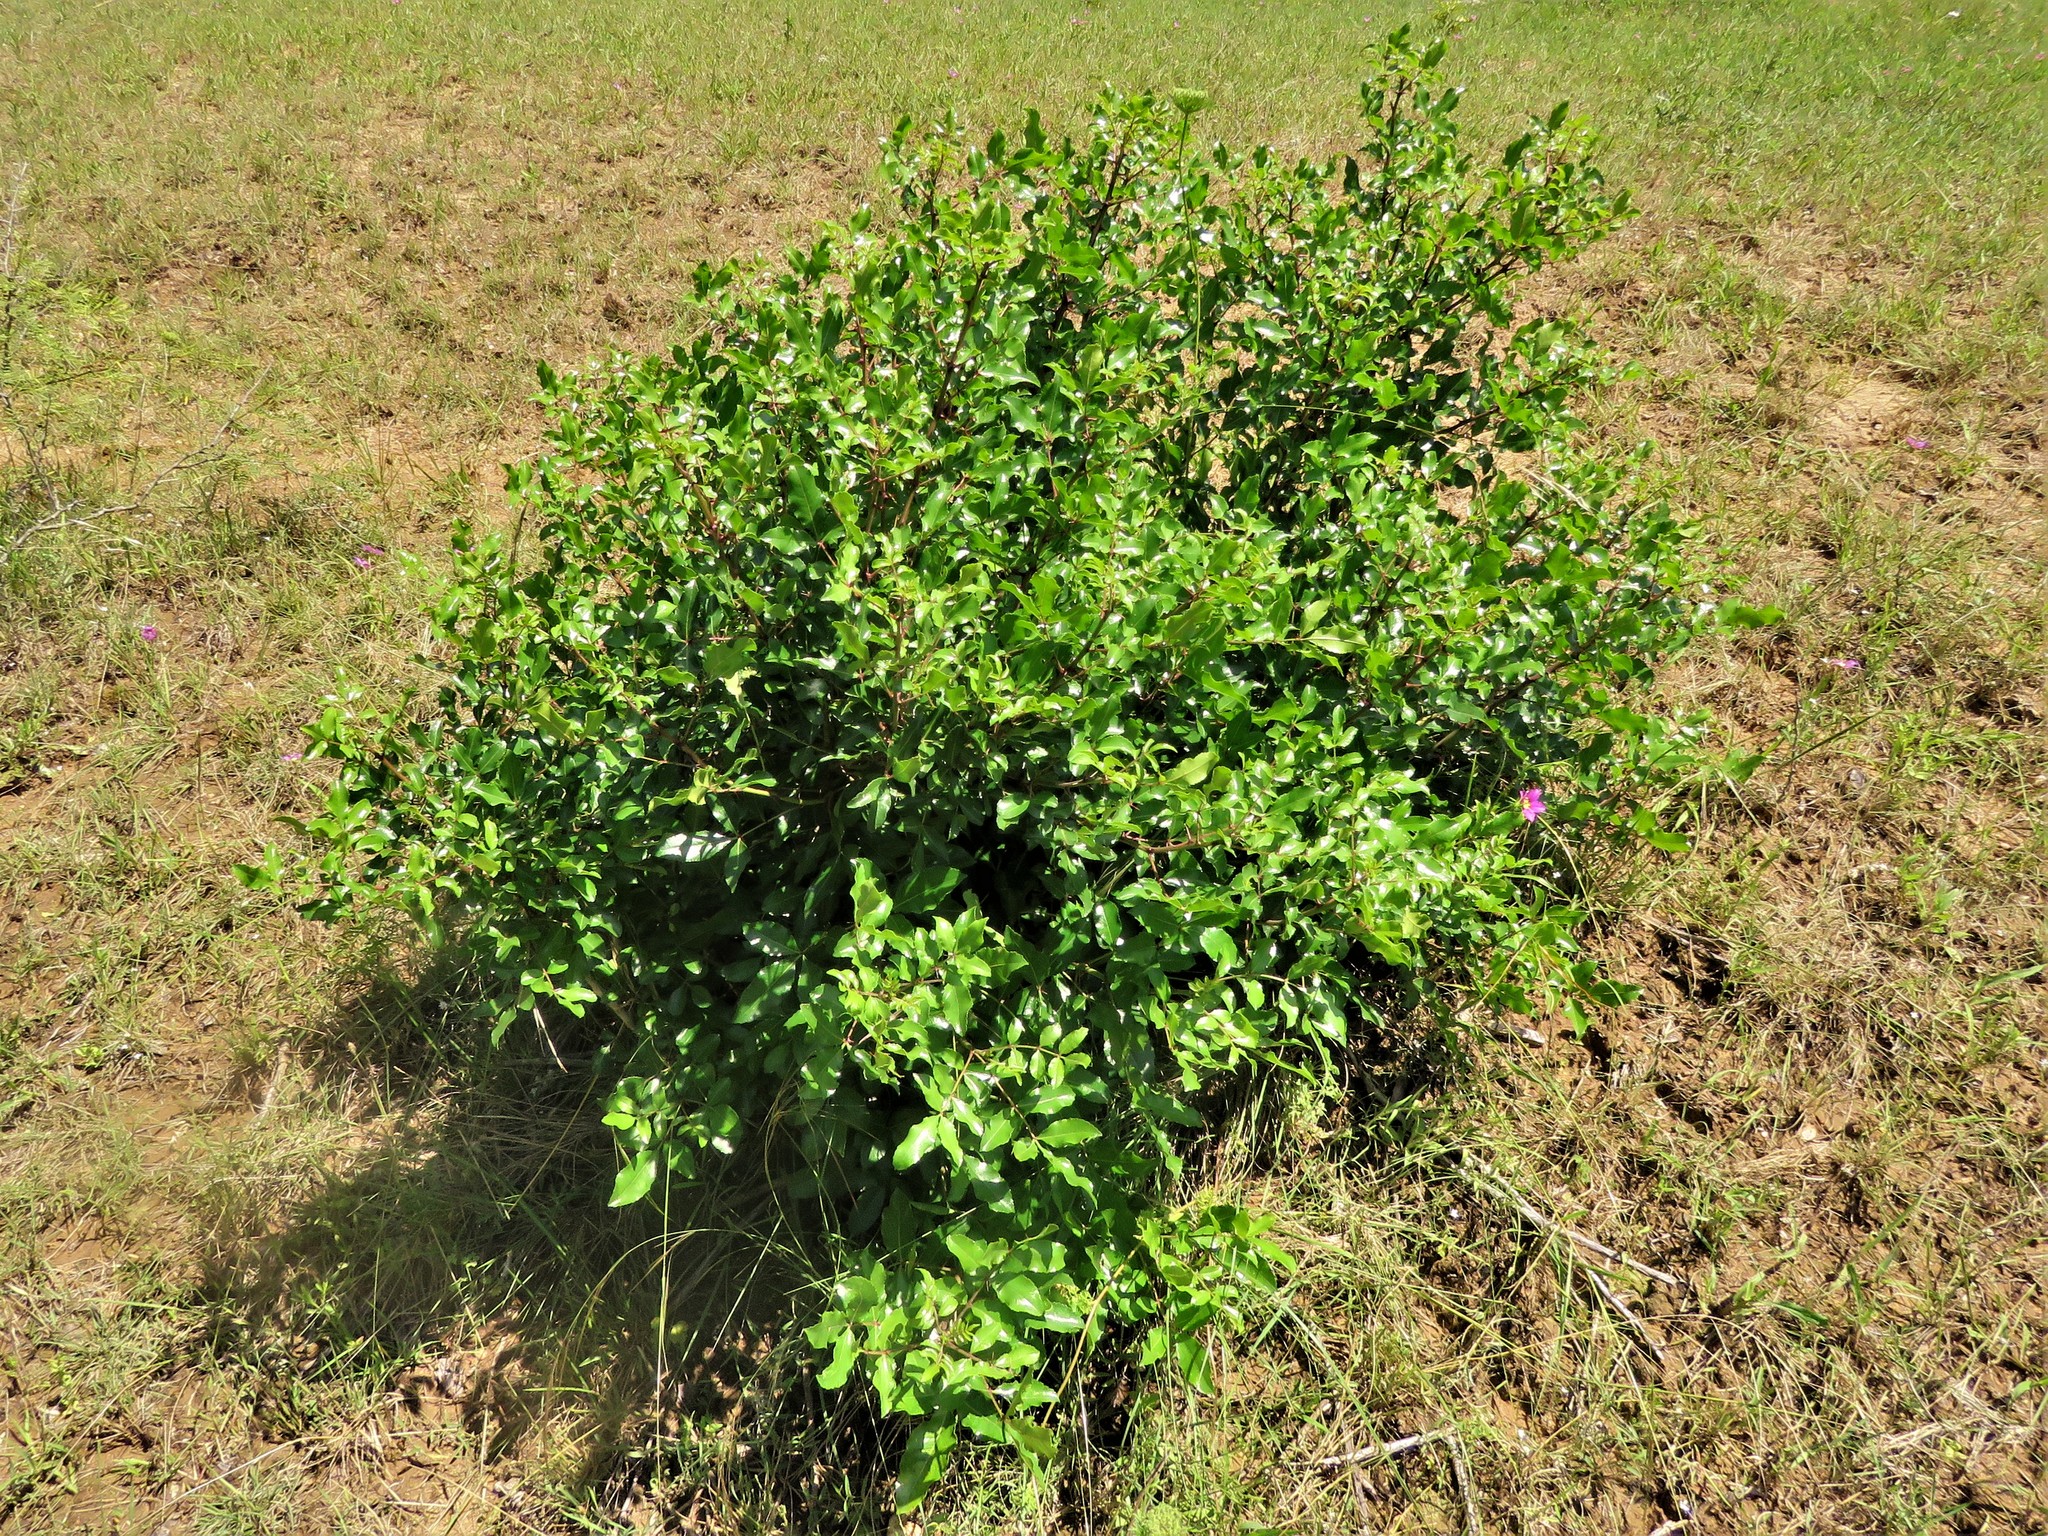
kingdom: Plantae
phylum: Tracheophyta
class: Magnoliopsida
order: Sapindales
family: Rutaceae
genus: Zanthoxylum
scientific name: Zanthoxylum clava-herculis
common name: Hercules'-club
